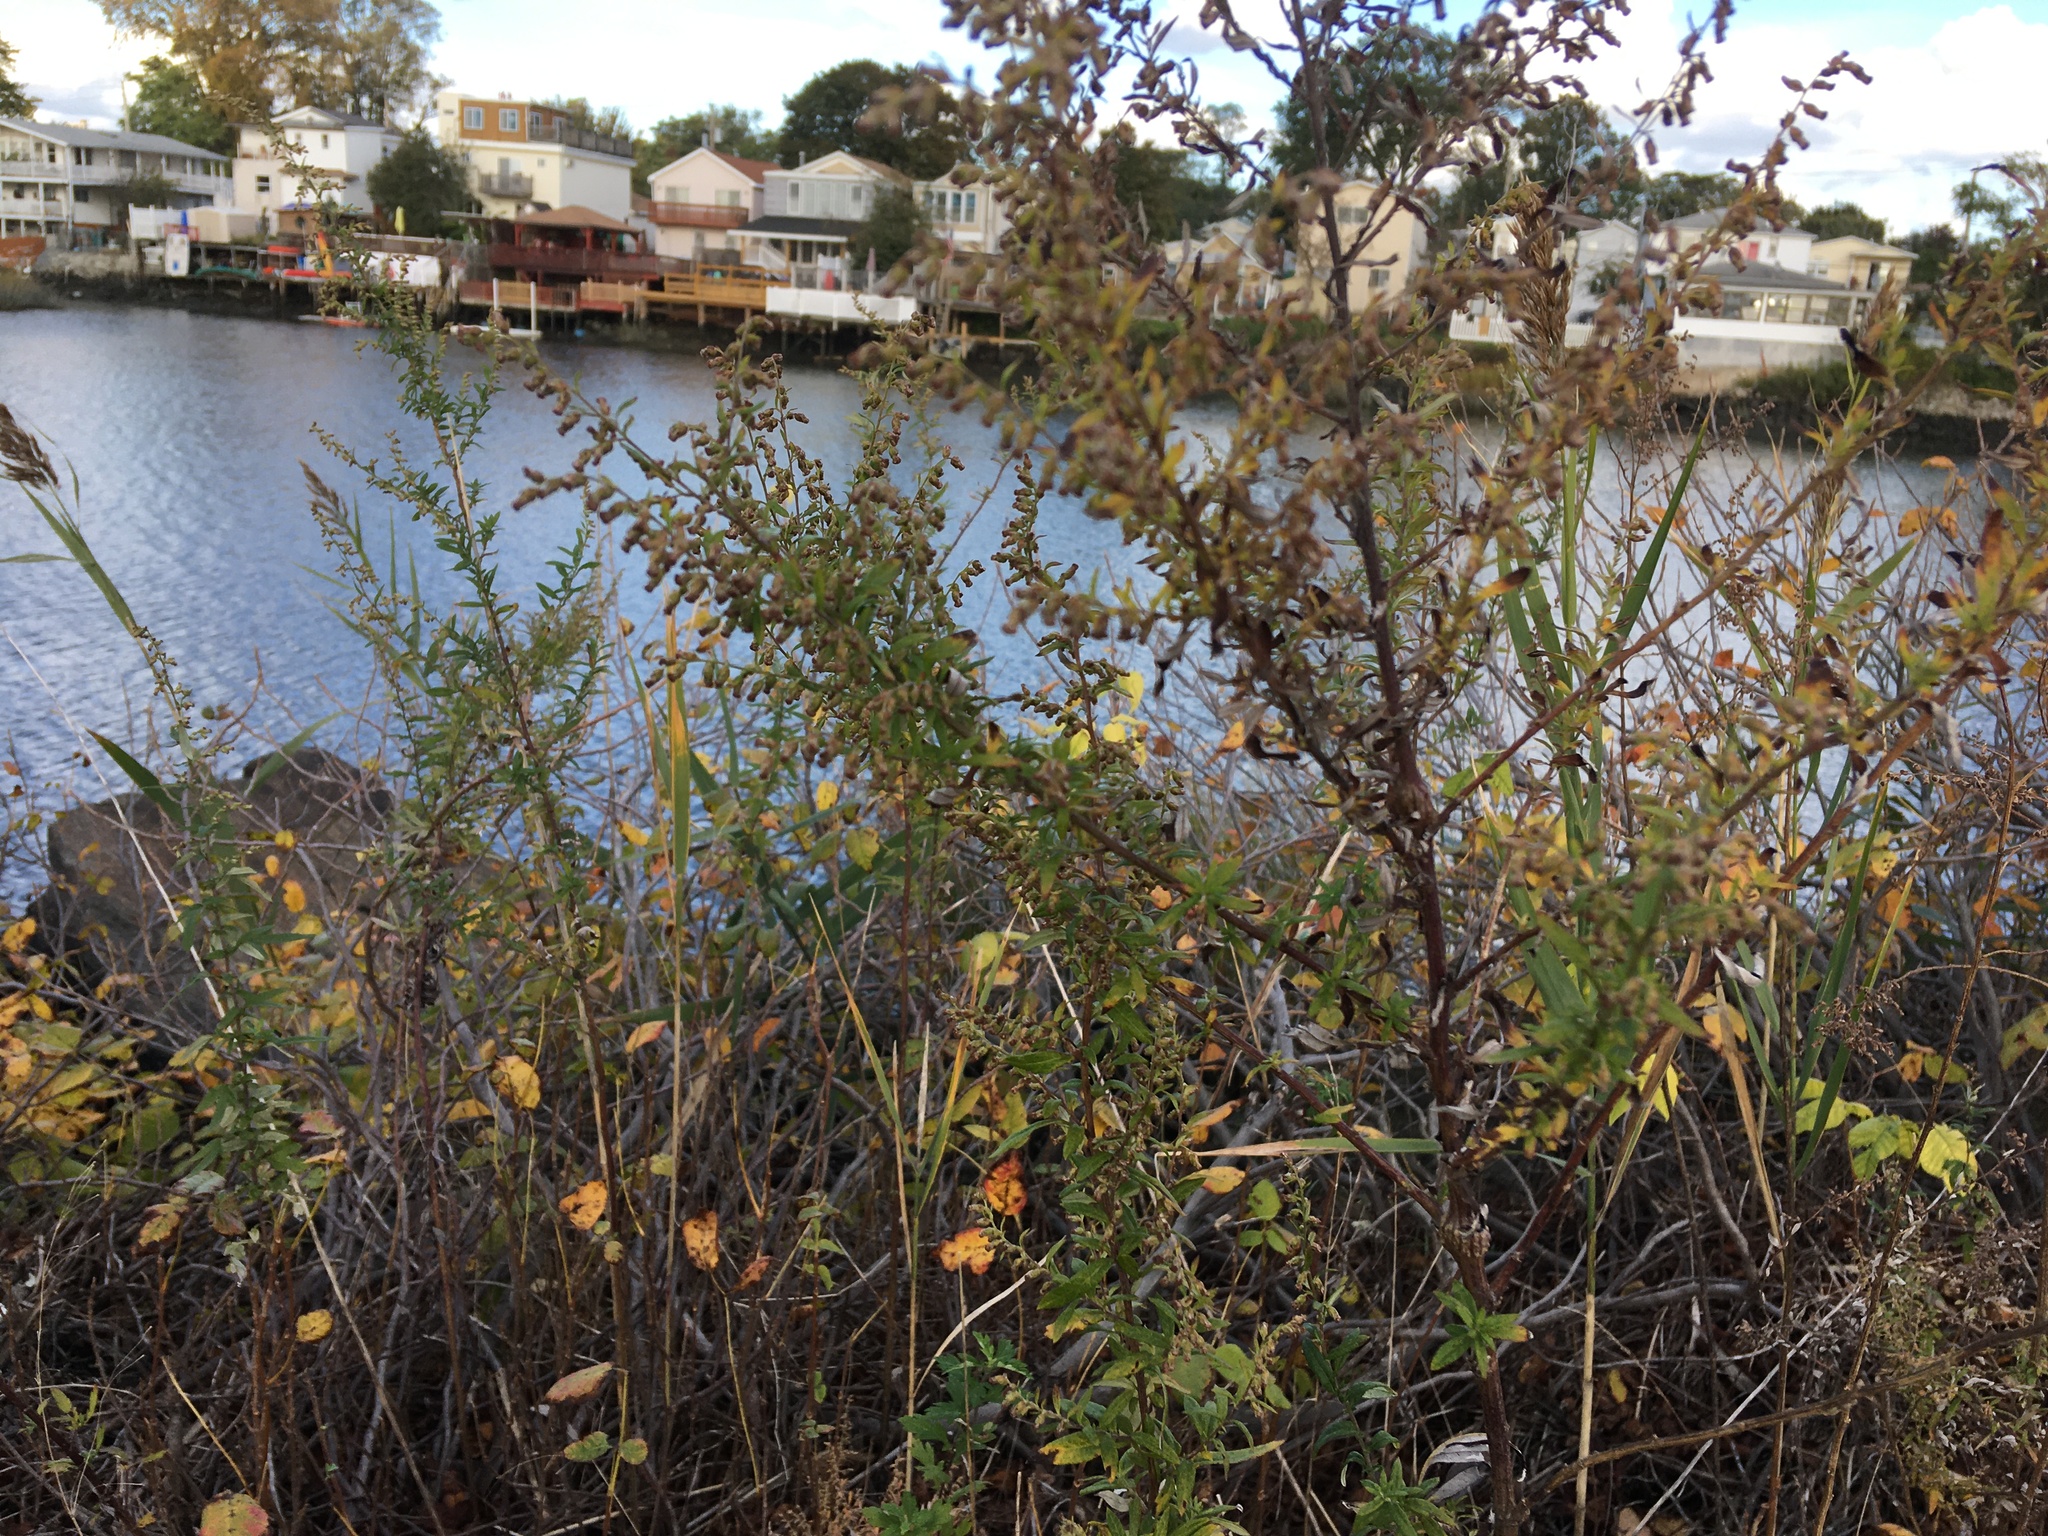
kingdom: Plantae
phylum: Tracheophyta
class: Magnoliopsida
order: Asterales
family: Asteraceae
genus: Artemisia
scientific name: Artemisia vulgaris
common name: Mugwort
